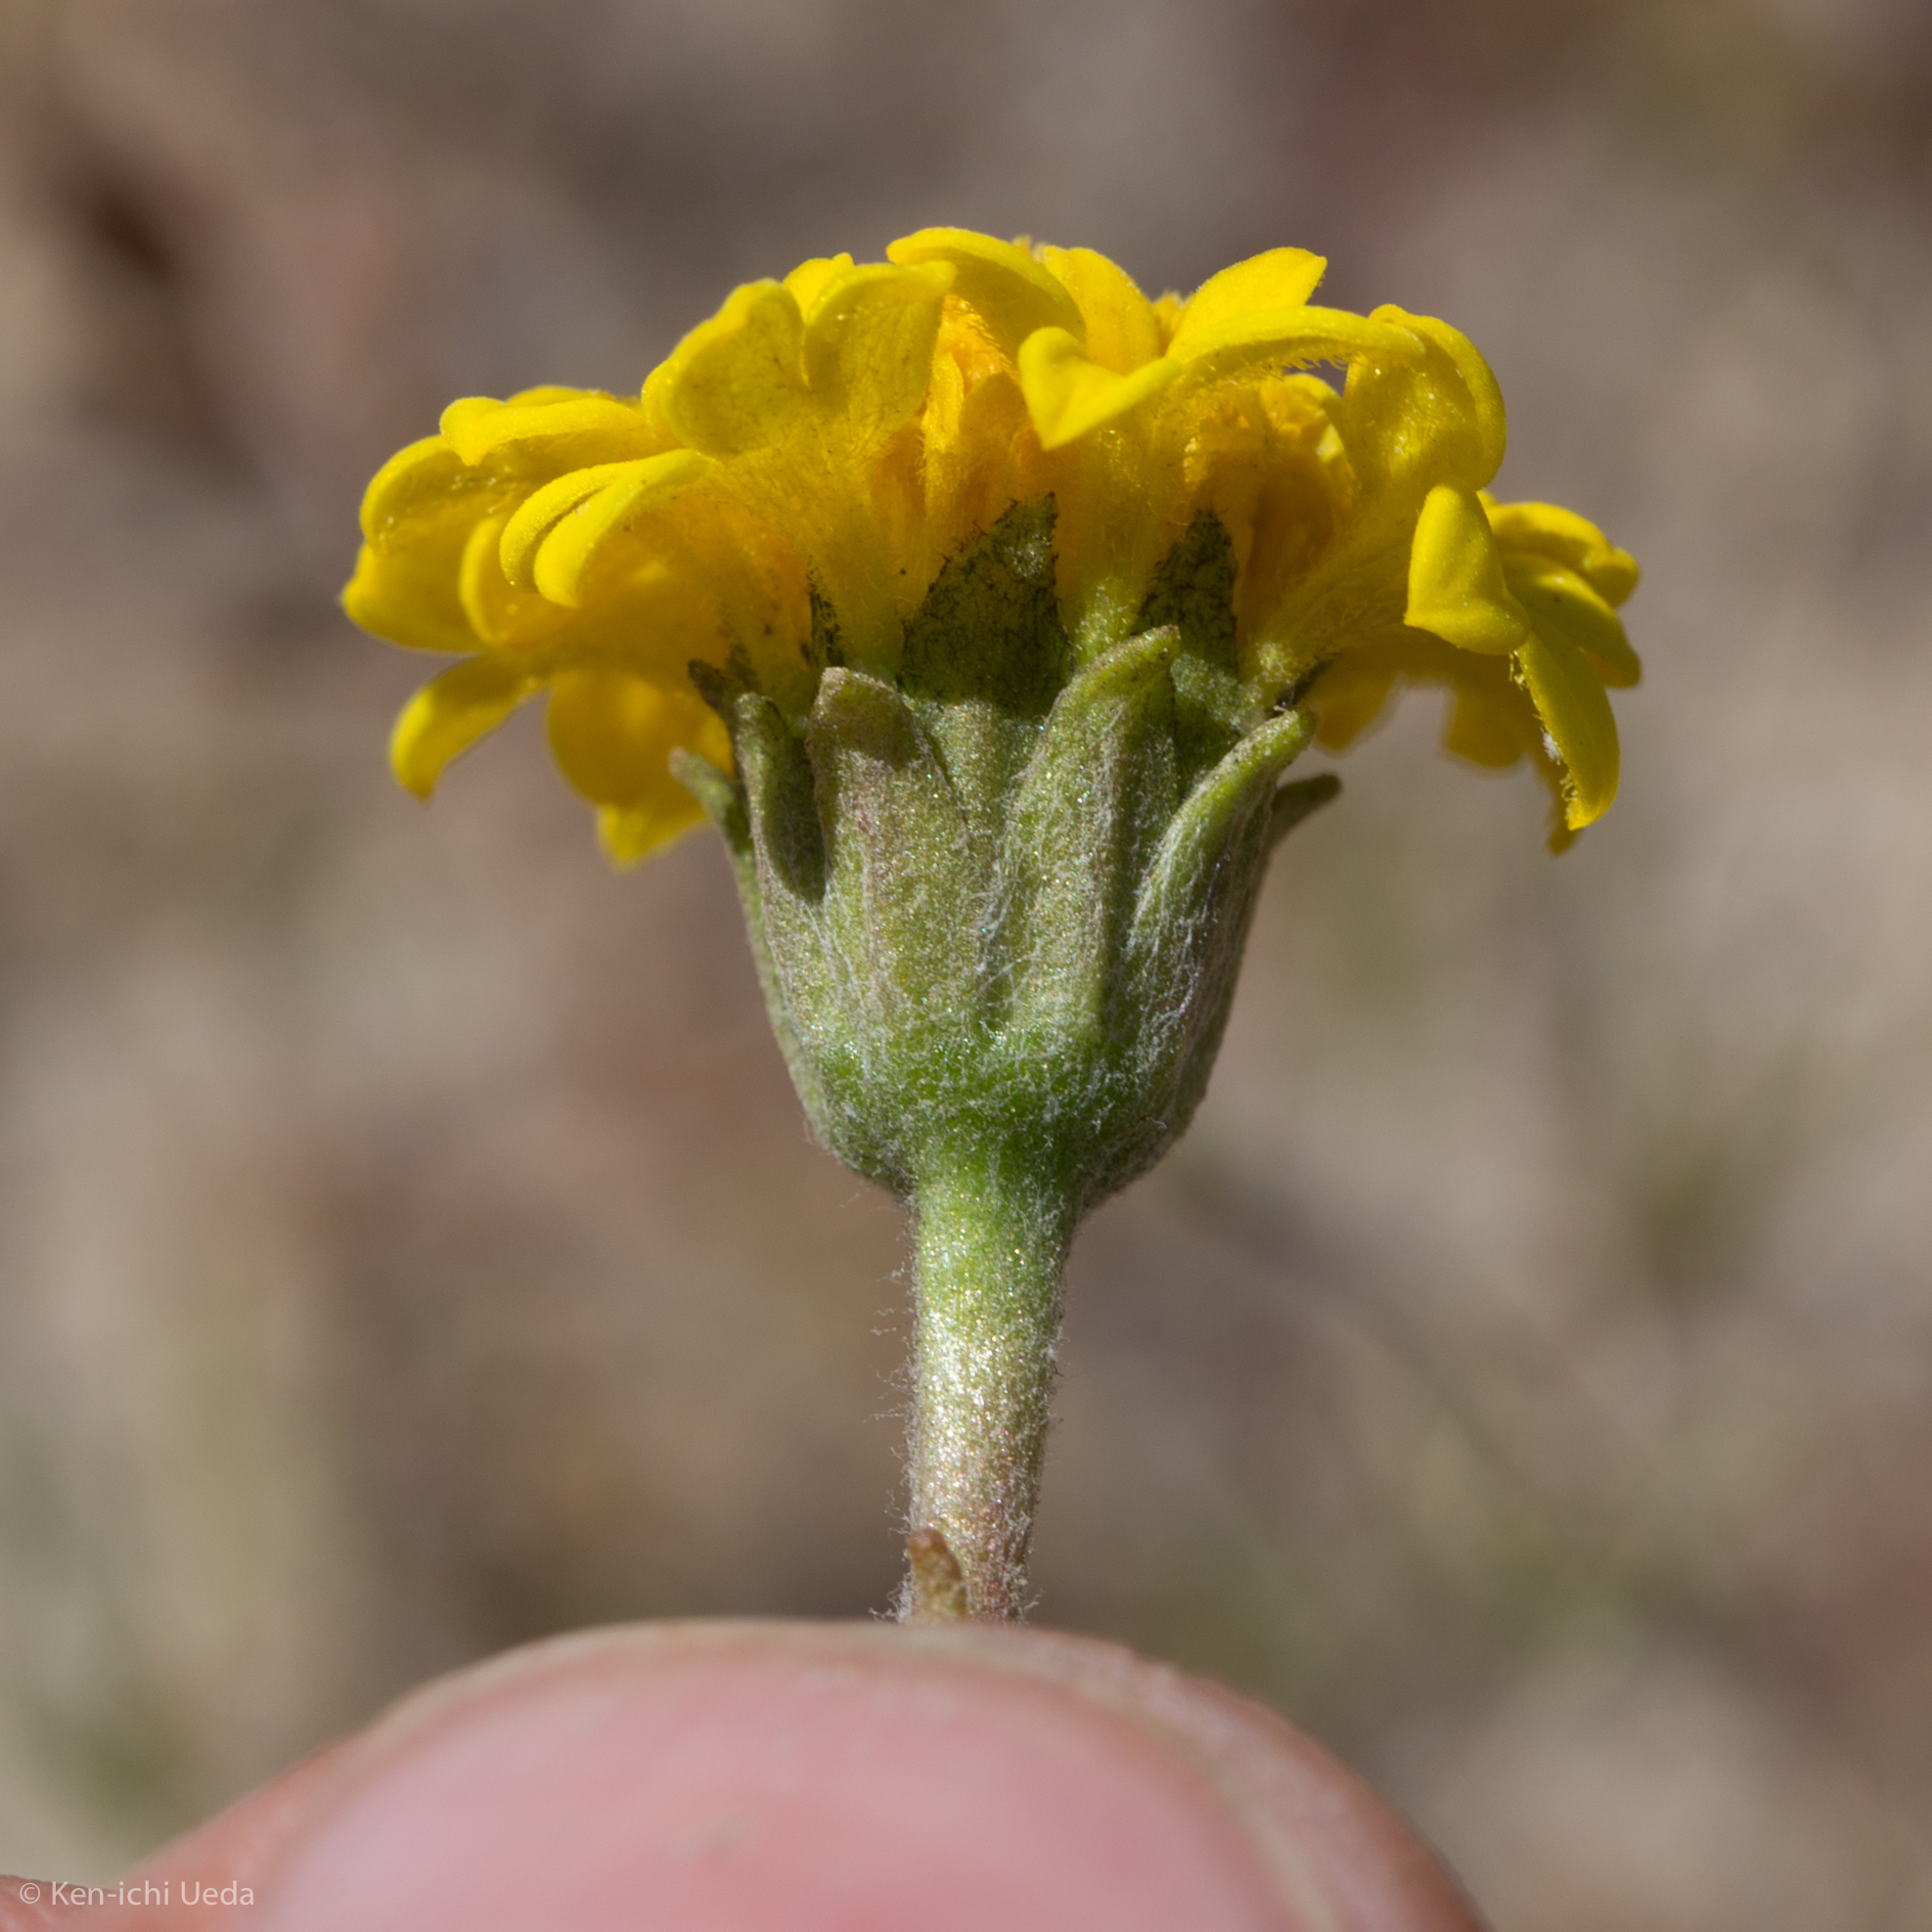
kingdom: Plantae
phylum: Tracheophyta
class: Magnoliopsida
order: Asterales
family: Asteraceae
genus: Chaenactis
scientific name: Chaenactis glabriuscula
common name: Yellow pincushion
